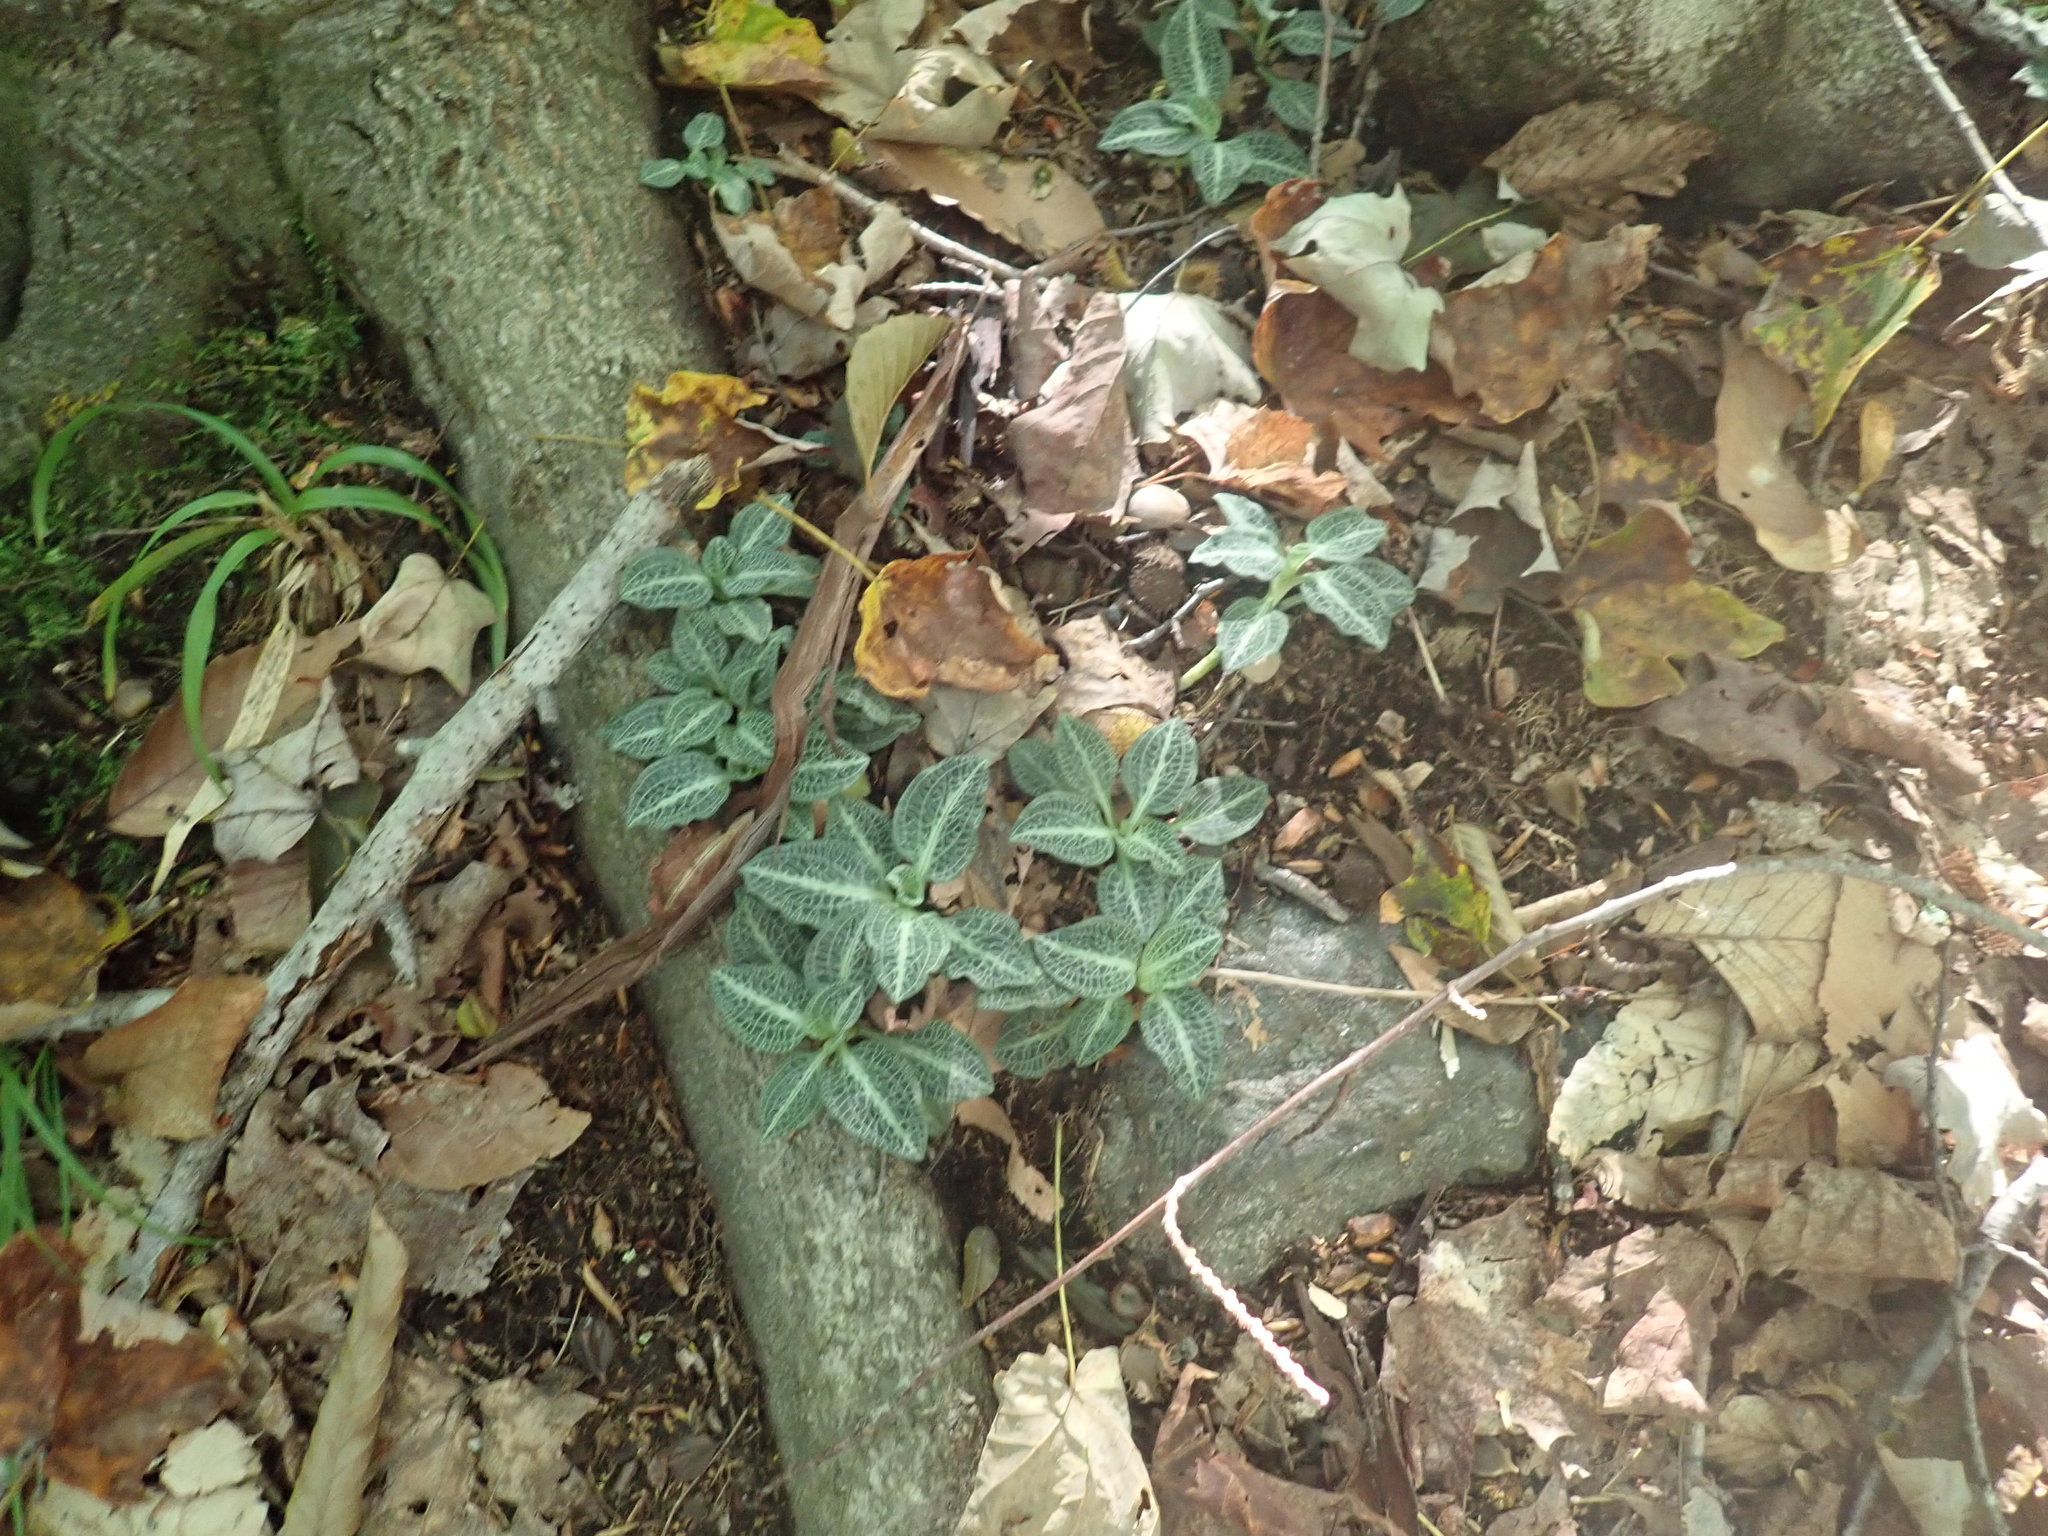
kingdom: Plantae
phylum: Tracheophyta
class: Liliopsida
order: Asparagales
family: Orchidaceae
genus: Goodyera
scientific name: Goodyera pubescens
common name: Downy rattlesnake-plantain
